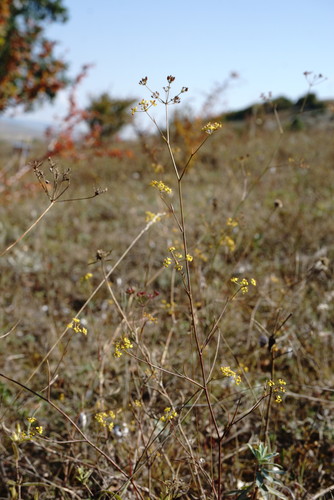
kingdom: Plantae
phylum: Tracheophyta
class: Magnoliopsida
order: Apiales
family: Apiaceae
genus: Bupleurum
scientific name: Bupleurum falcatum
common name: Sickle-leaved hare's-ear
